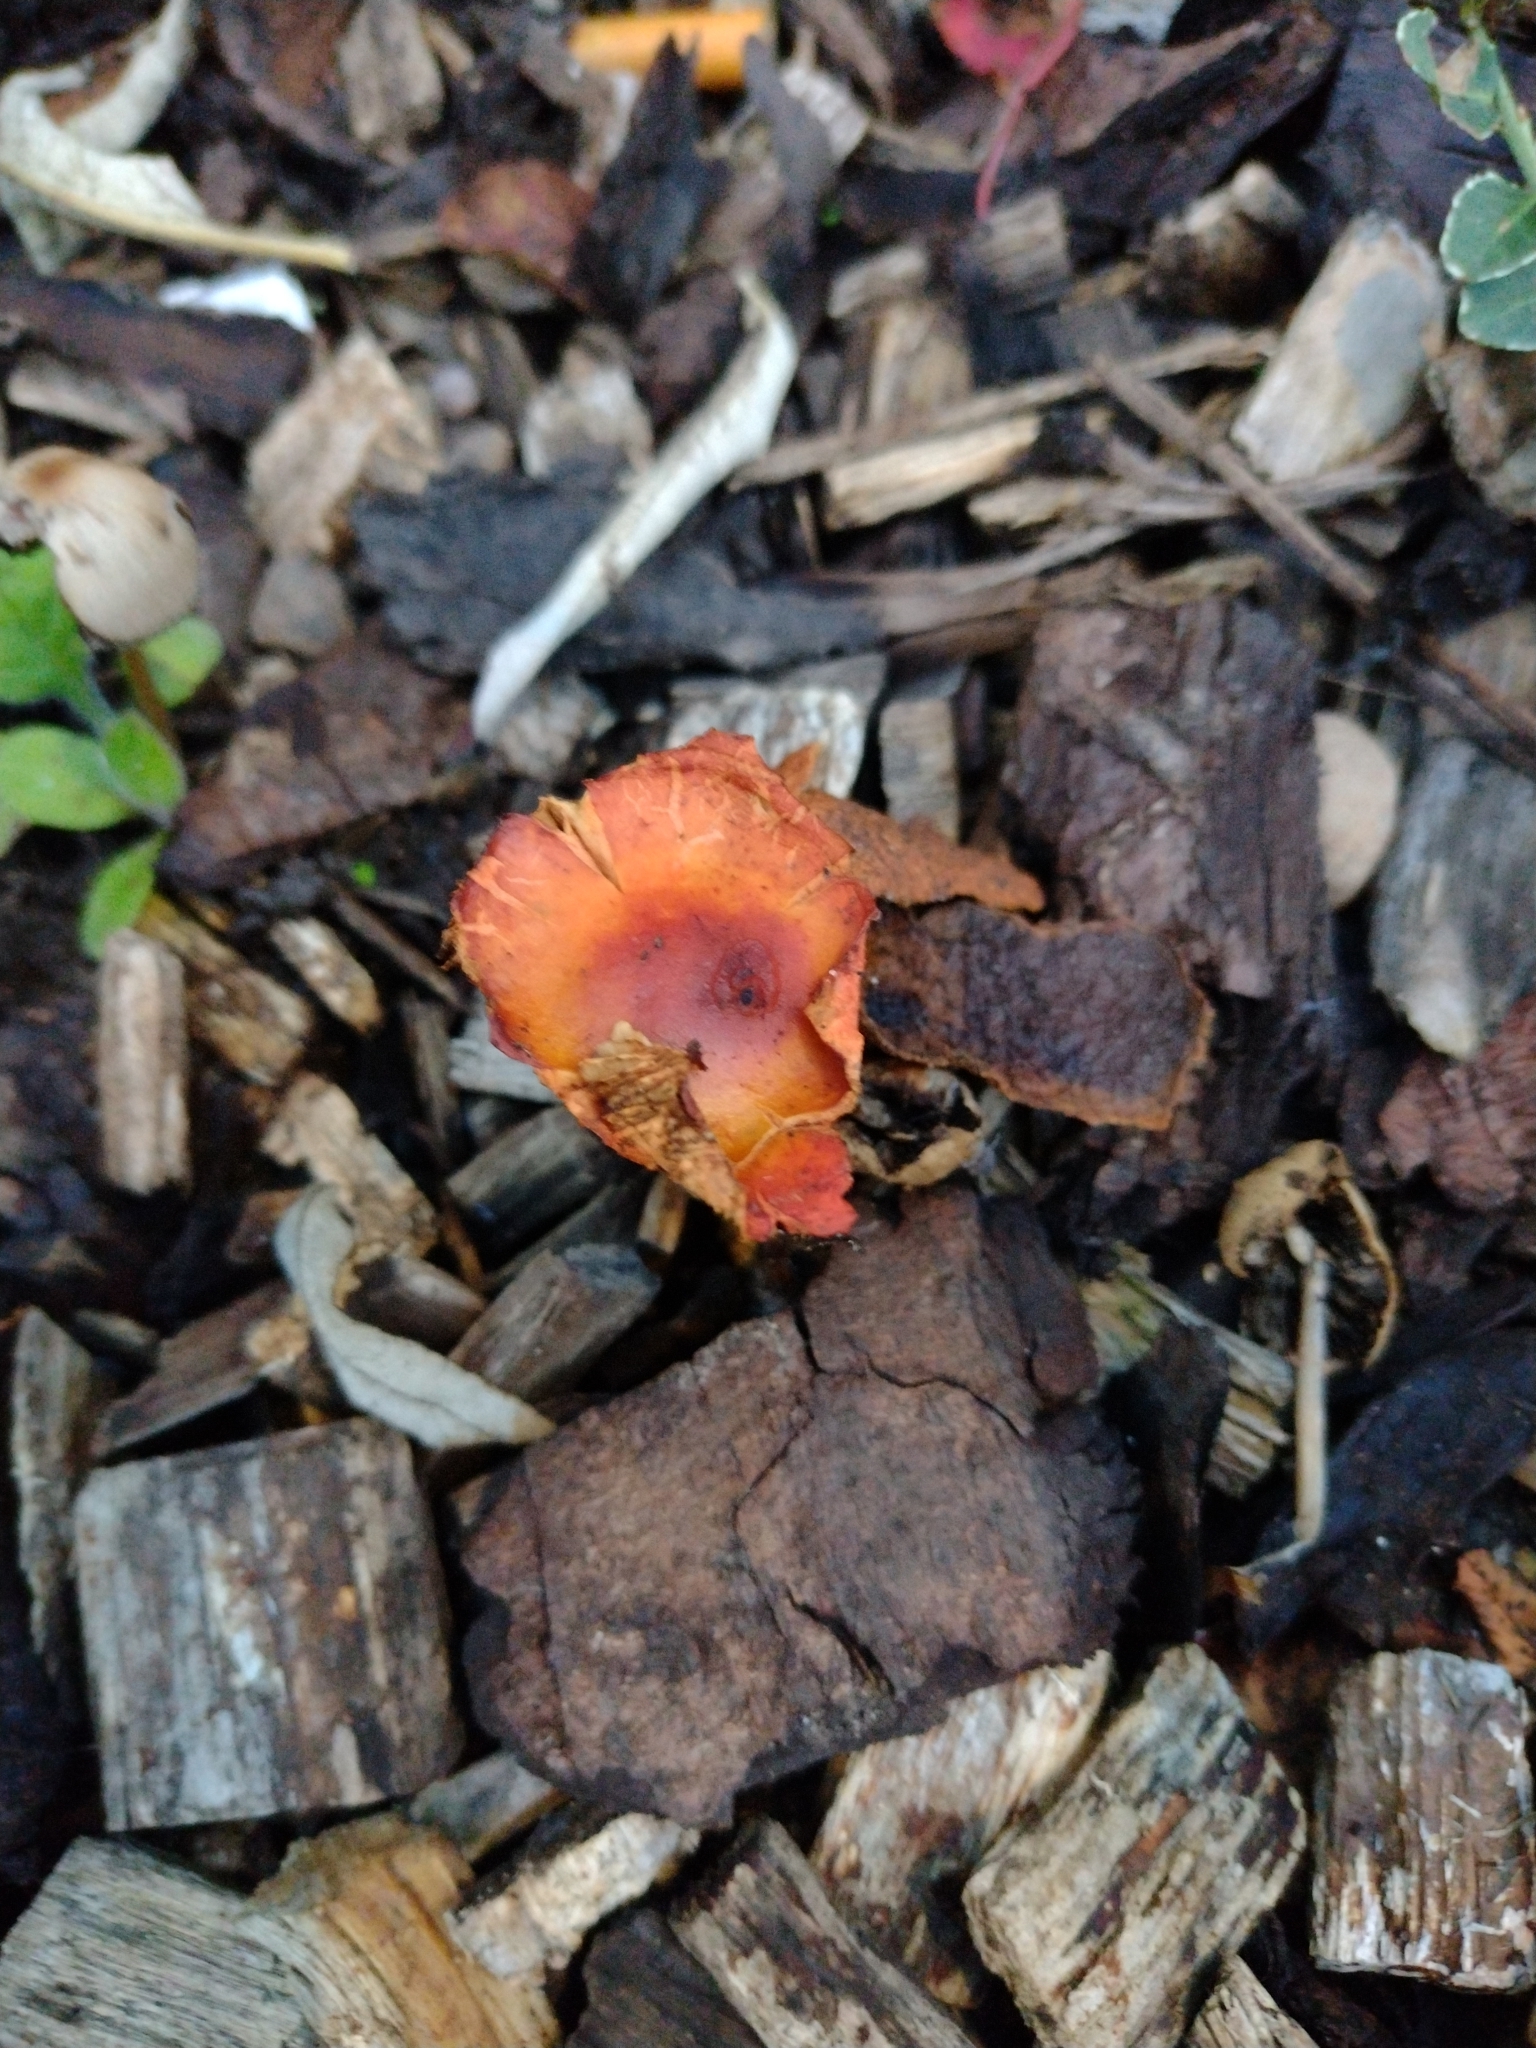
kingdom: Fungi
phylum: Basidiomycota
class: Agaricomycetes
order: Agaricales
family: Strophariaceae
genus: Leratiomyces
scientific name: Leratiomyces ceres
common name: Redlead roundhead
